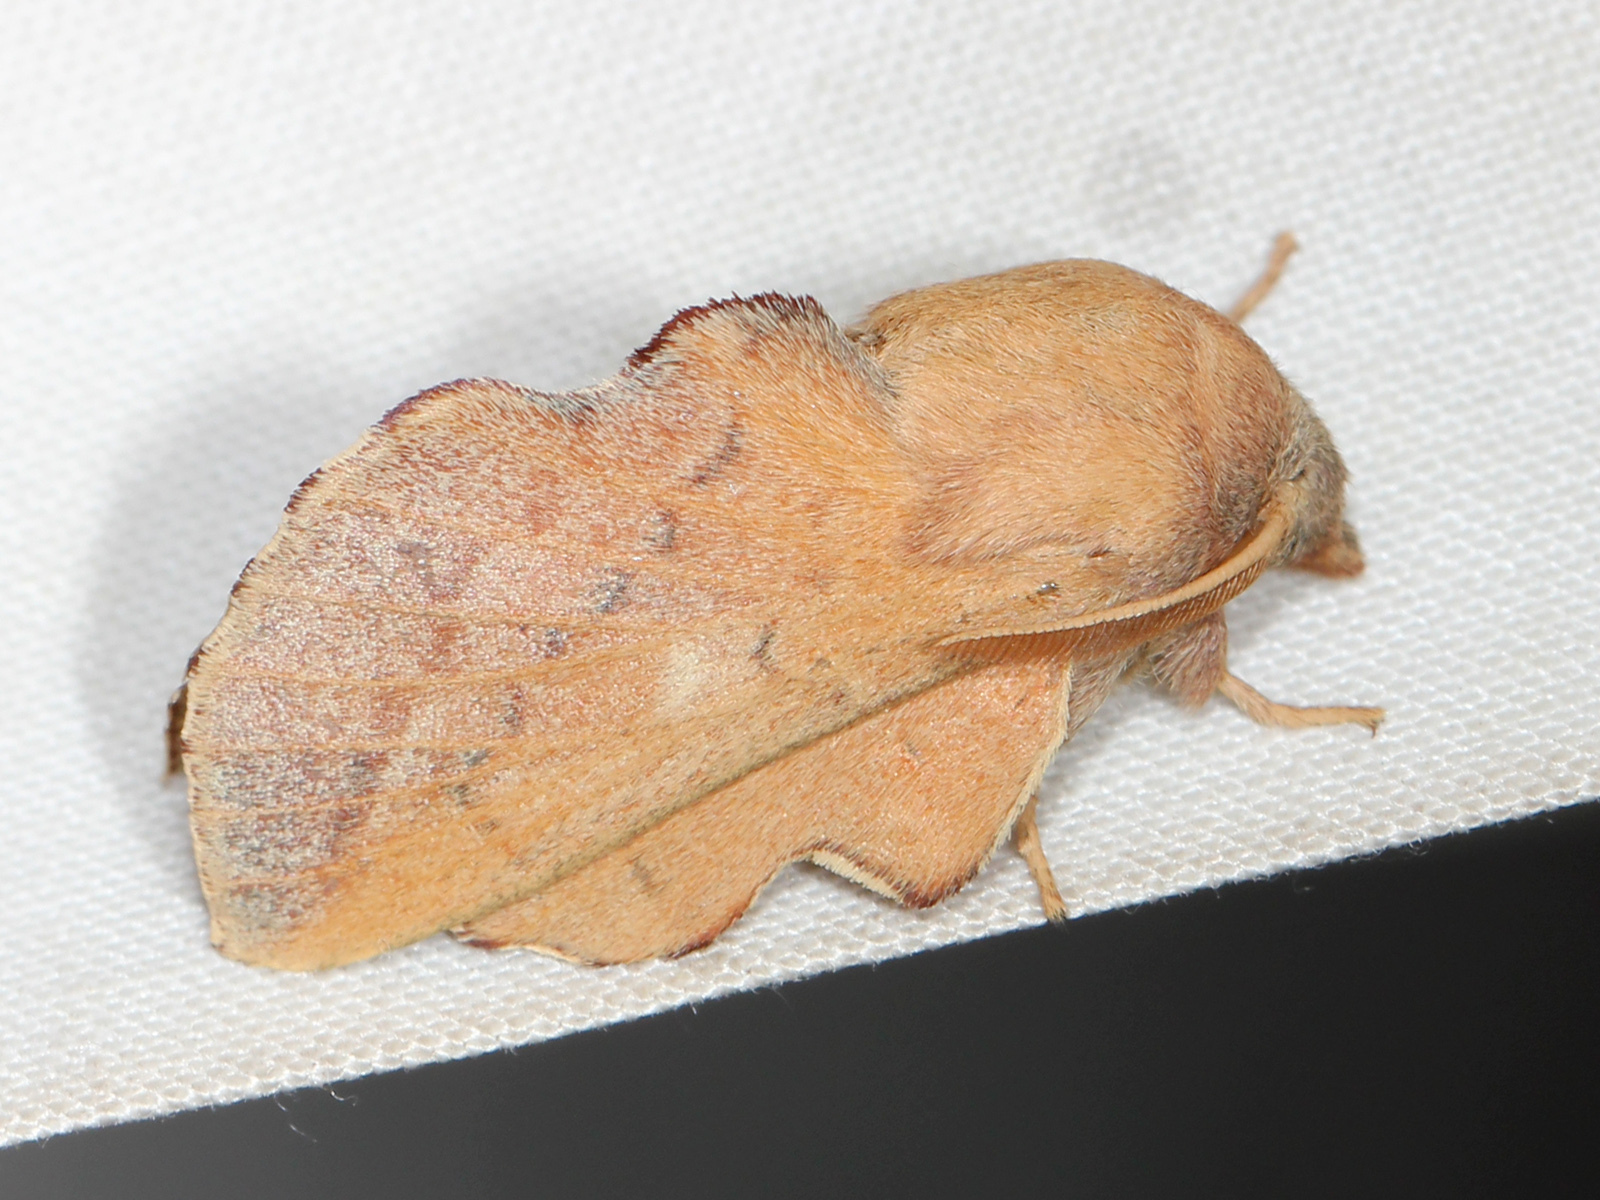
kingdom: Animalia
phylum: Arthropoda
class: Insecta
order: Lepidoptera
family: Lasiocampidae
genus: Phyllodesma
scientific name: Phyllodesma americana
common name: American lappet moth
